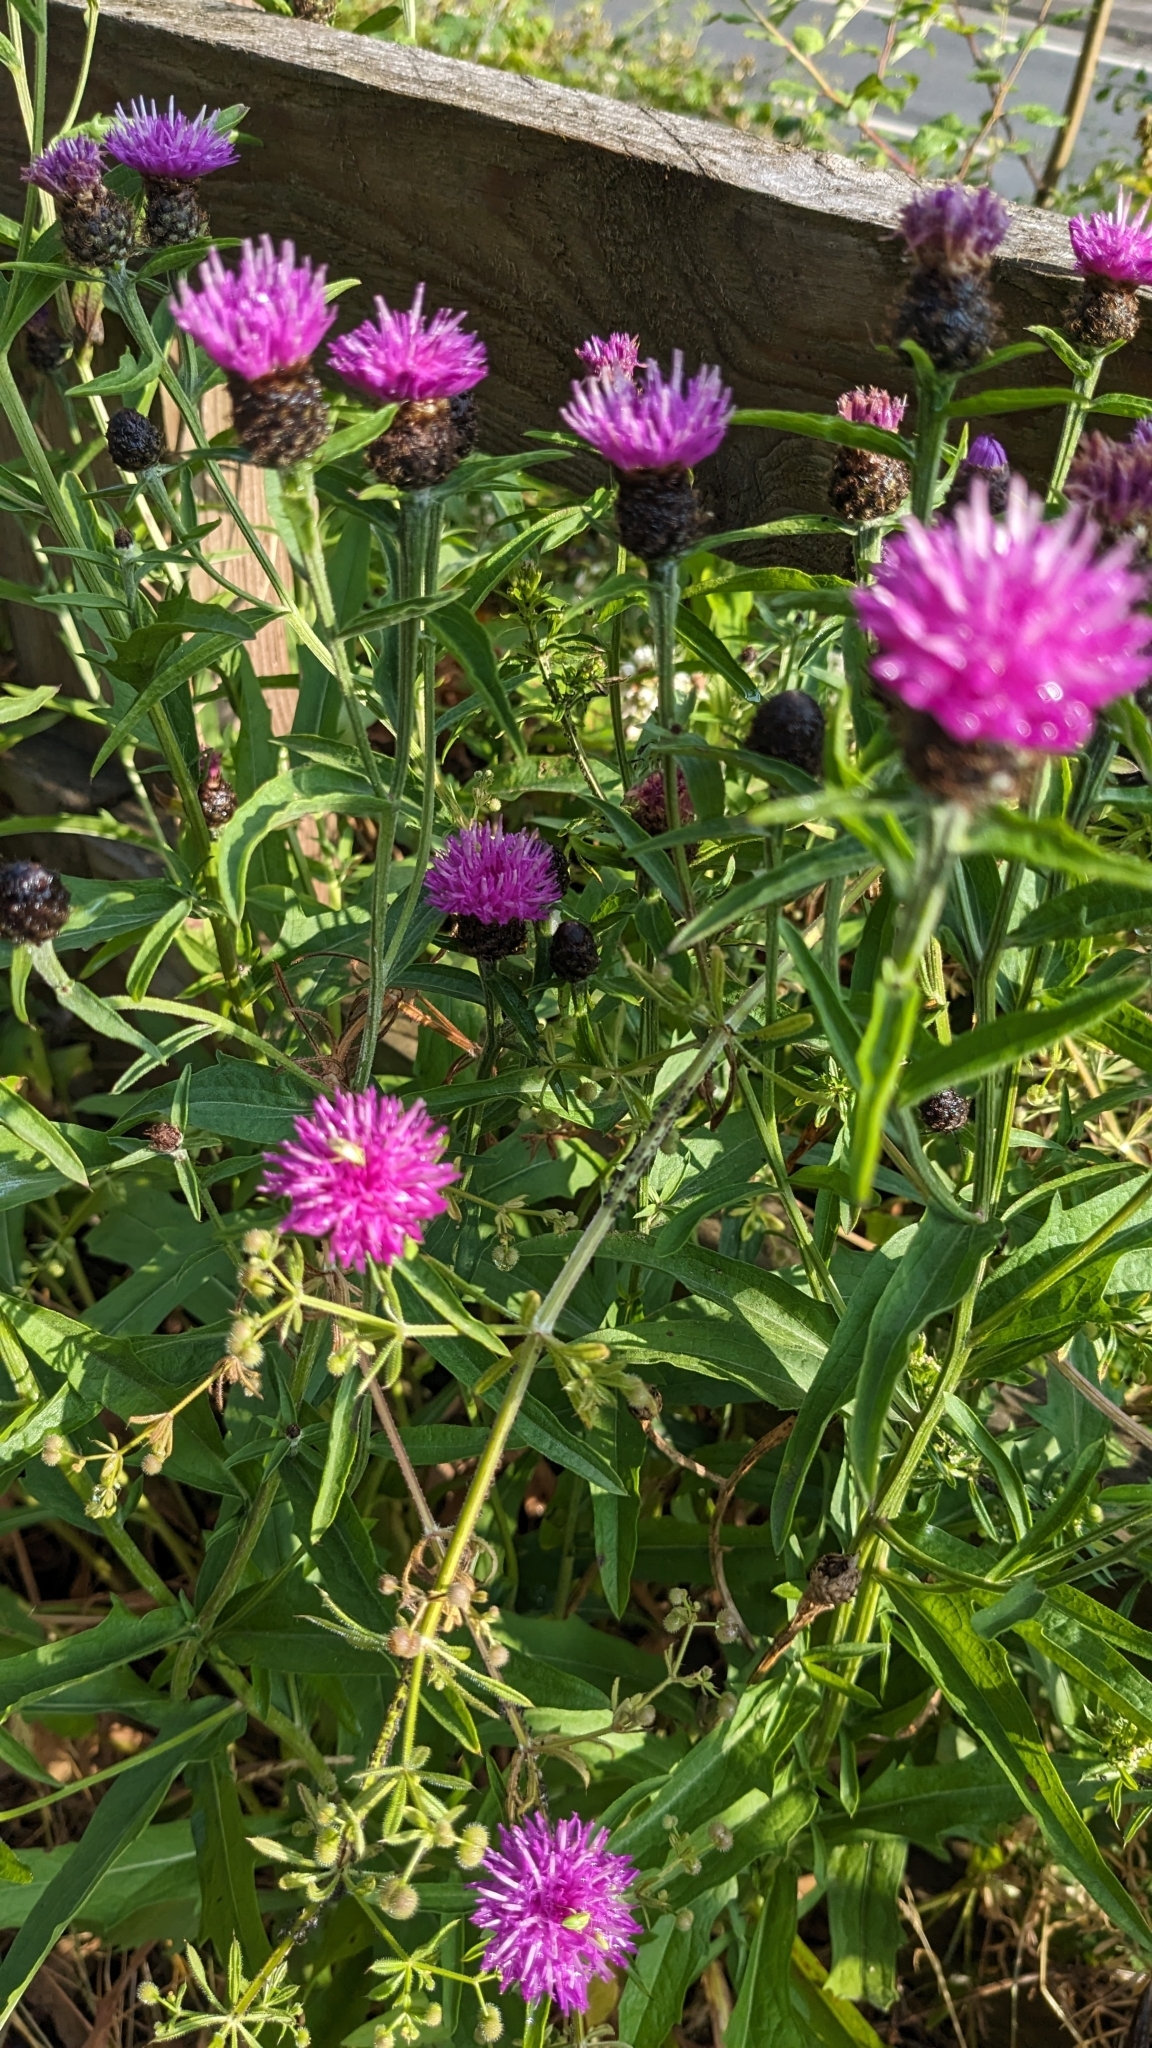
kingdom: Plantae
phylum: Tracheophyta
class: Magnoliopsida
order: Asterales
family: Asteraceae
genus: Centaurea
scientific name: Centaurea nigra
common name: Lesser knapweed
